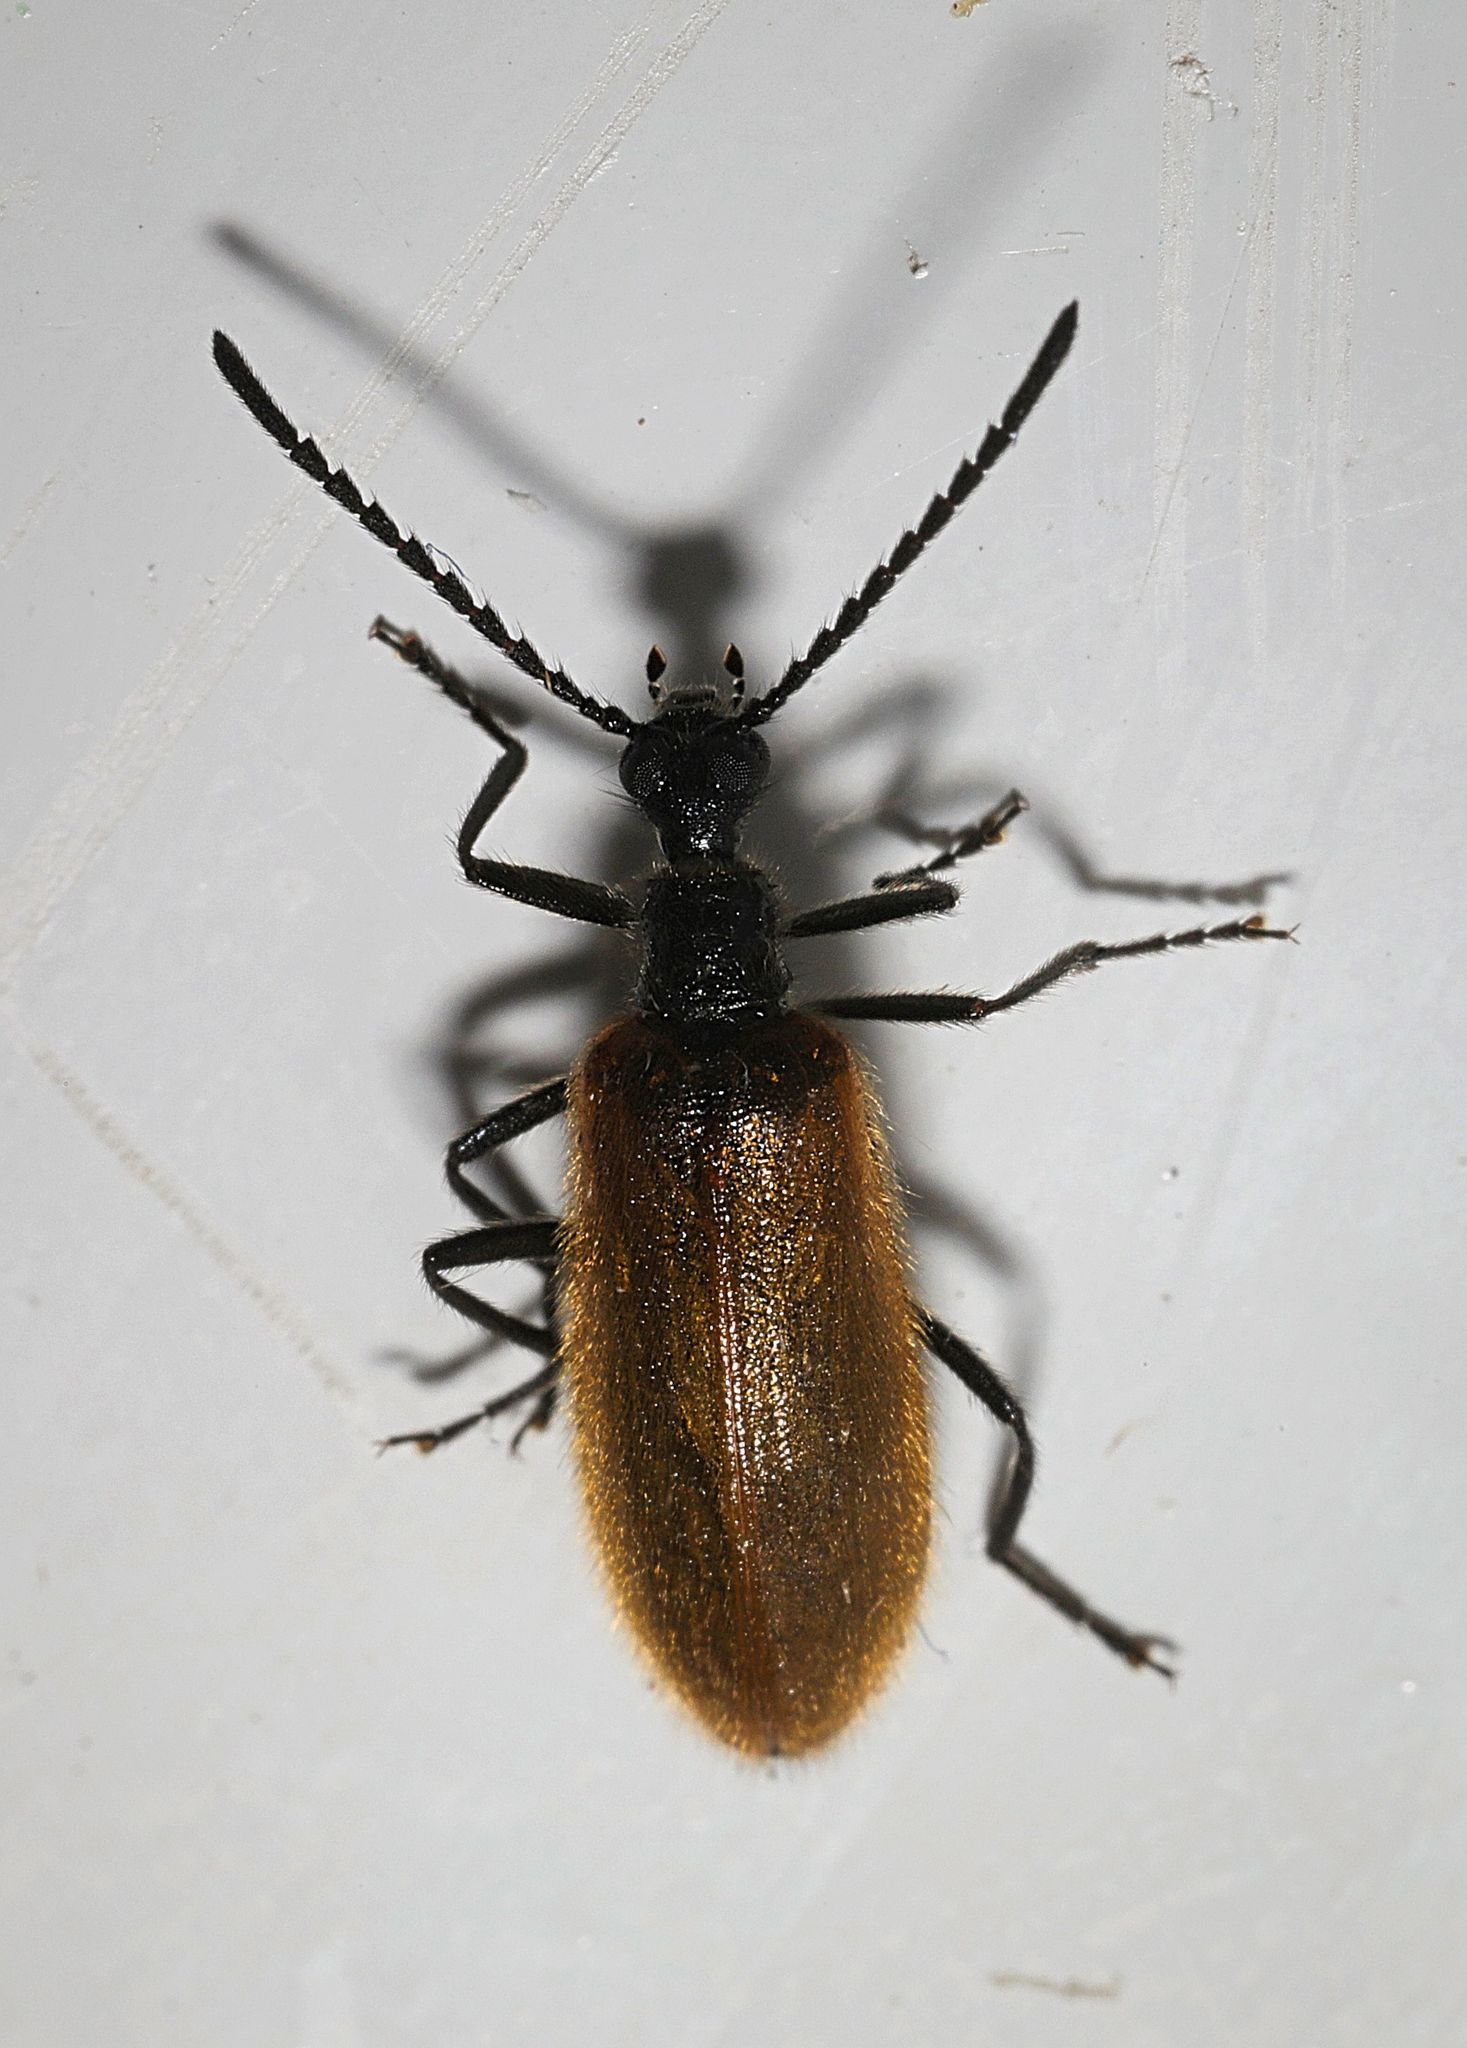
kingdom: Animalia
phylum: Arthropoda
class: Insecta
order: Coleoptera
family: Tenebrionidae
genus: Lagria
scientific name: Lagria hirta
